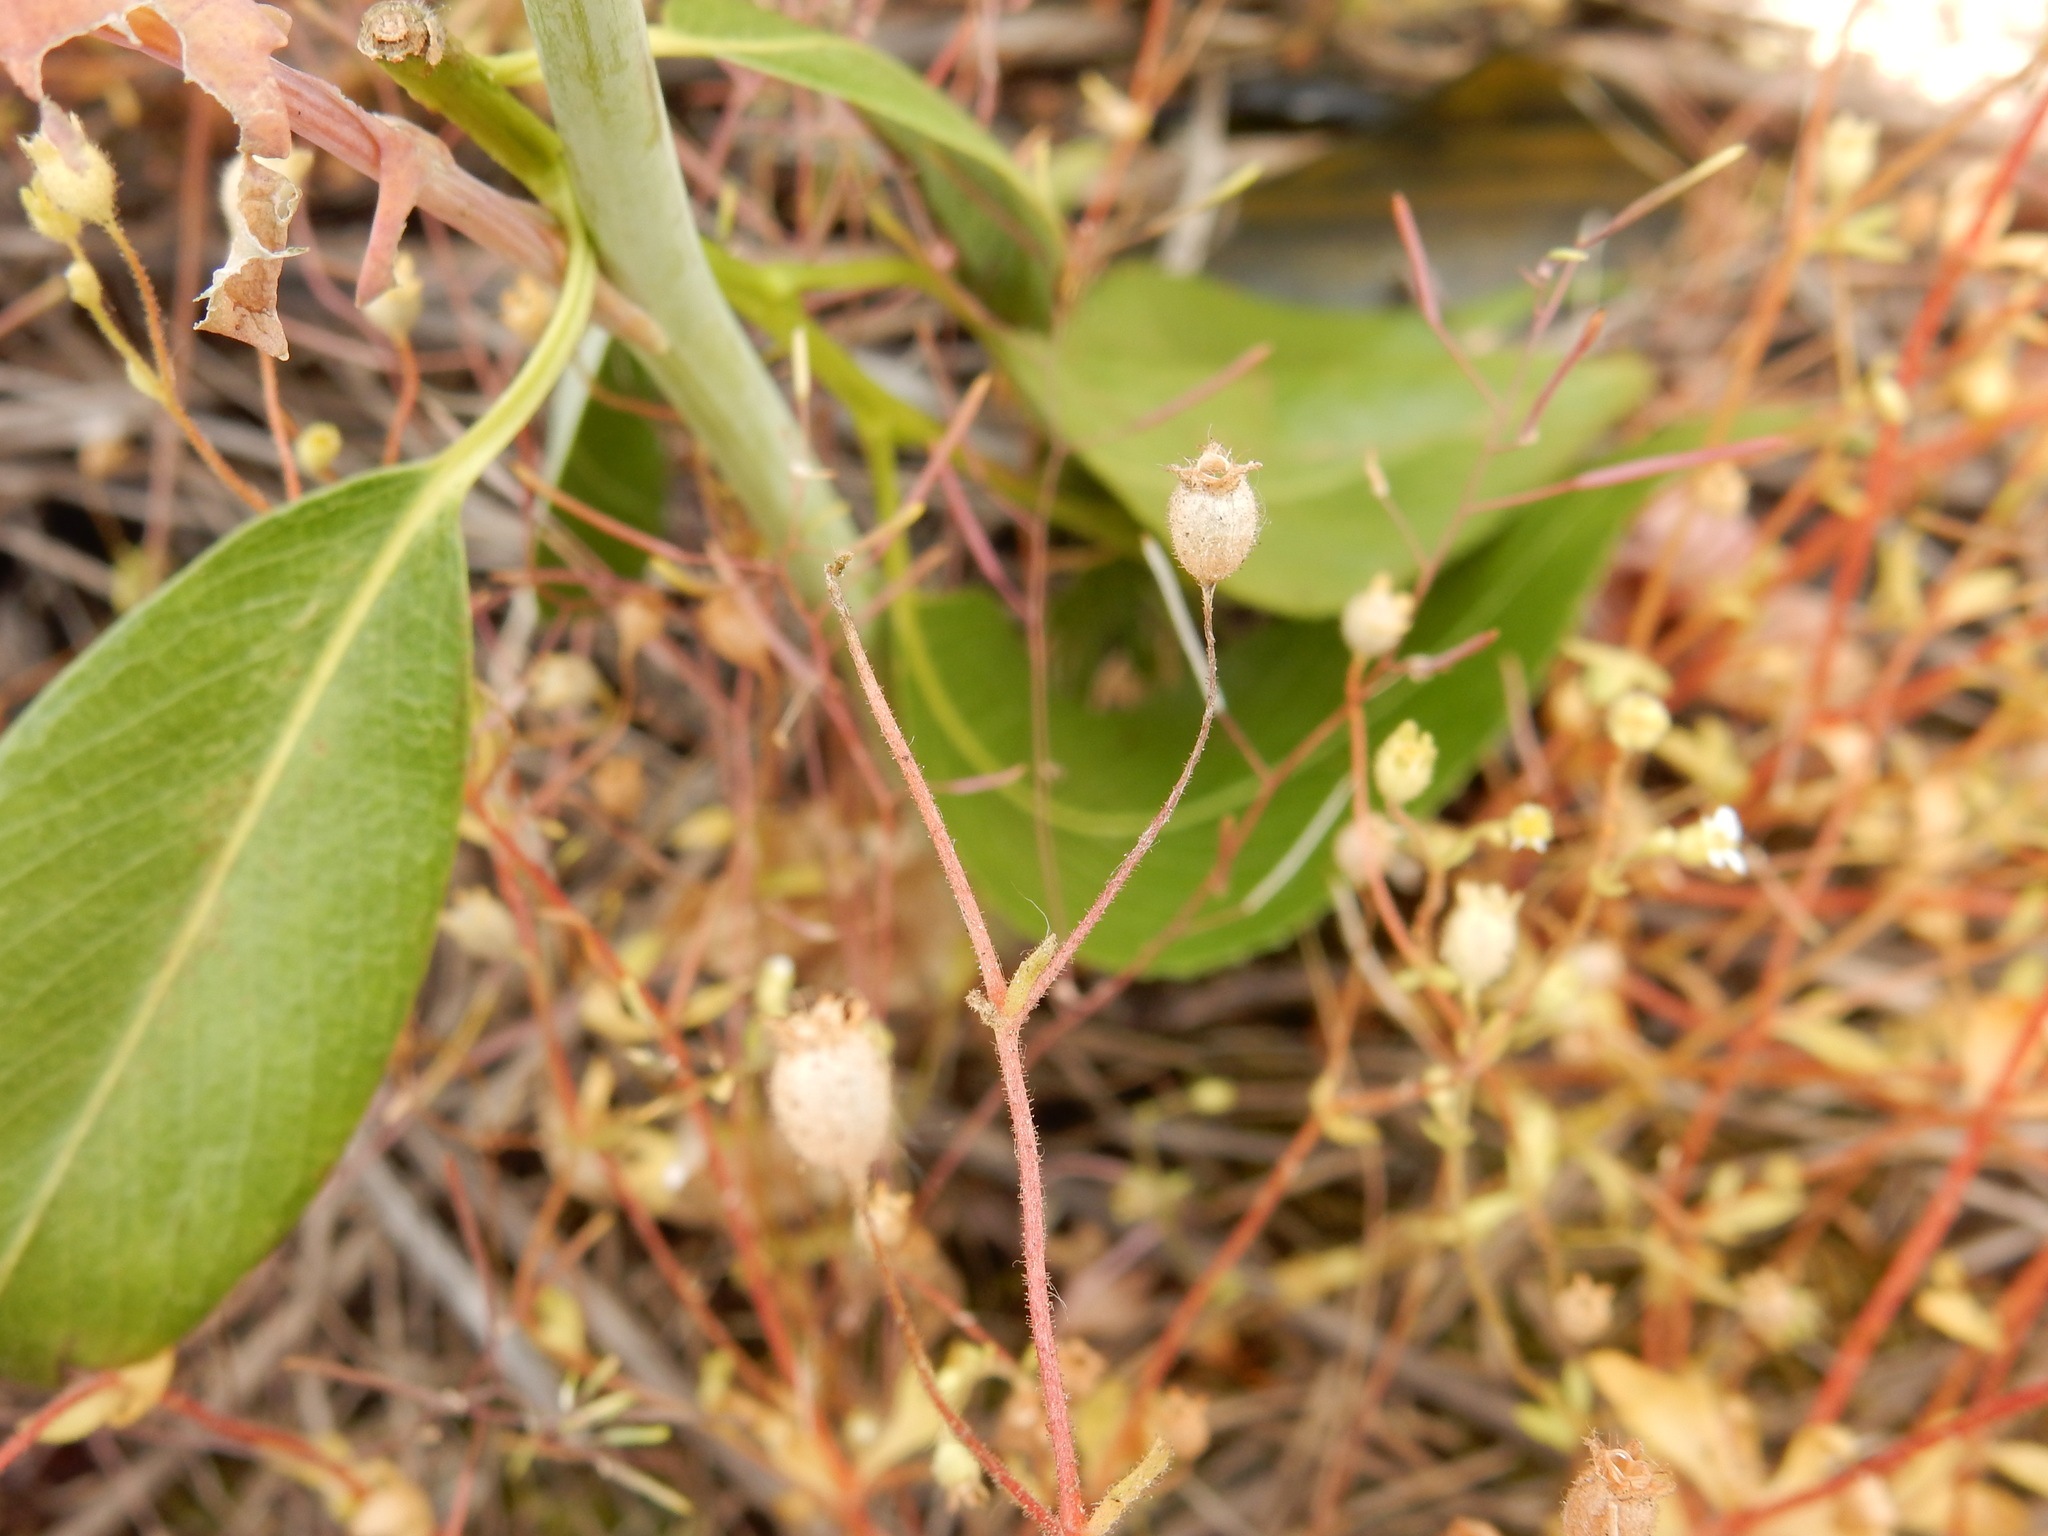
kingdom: Plantae
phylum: Tracheophyta
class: Magnoliopsida
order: Saxifragales
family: Saxifragaceae
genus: Saxifraga
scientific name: Saxifraga tridactylites
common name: Rue-leaved saxifrage
